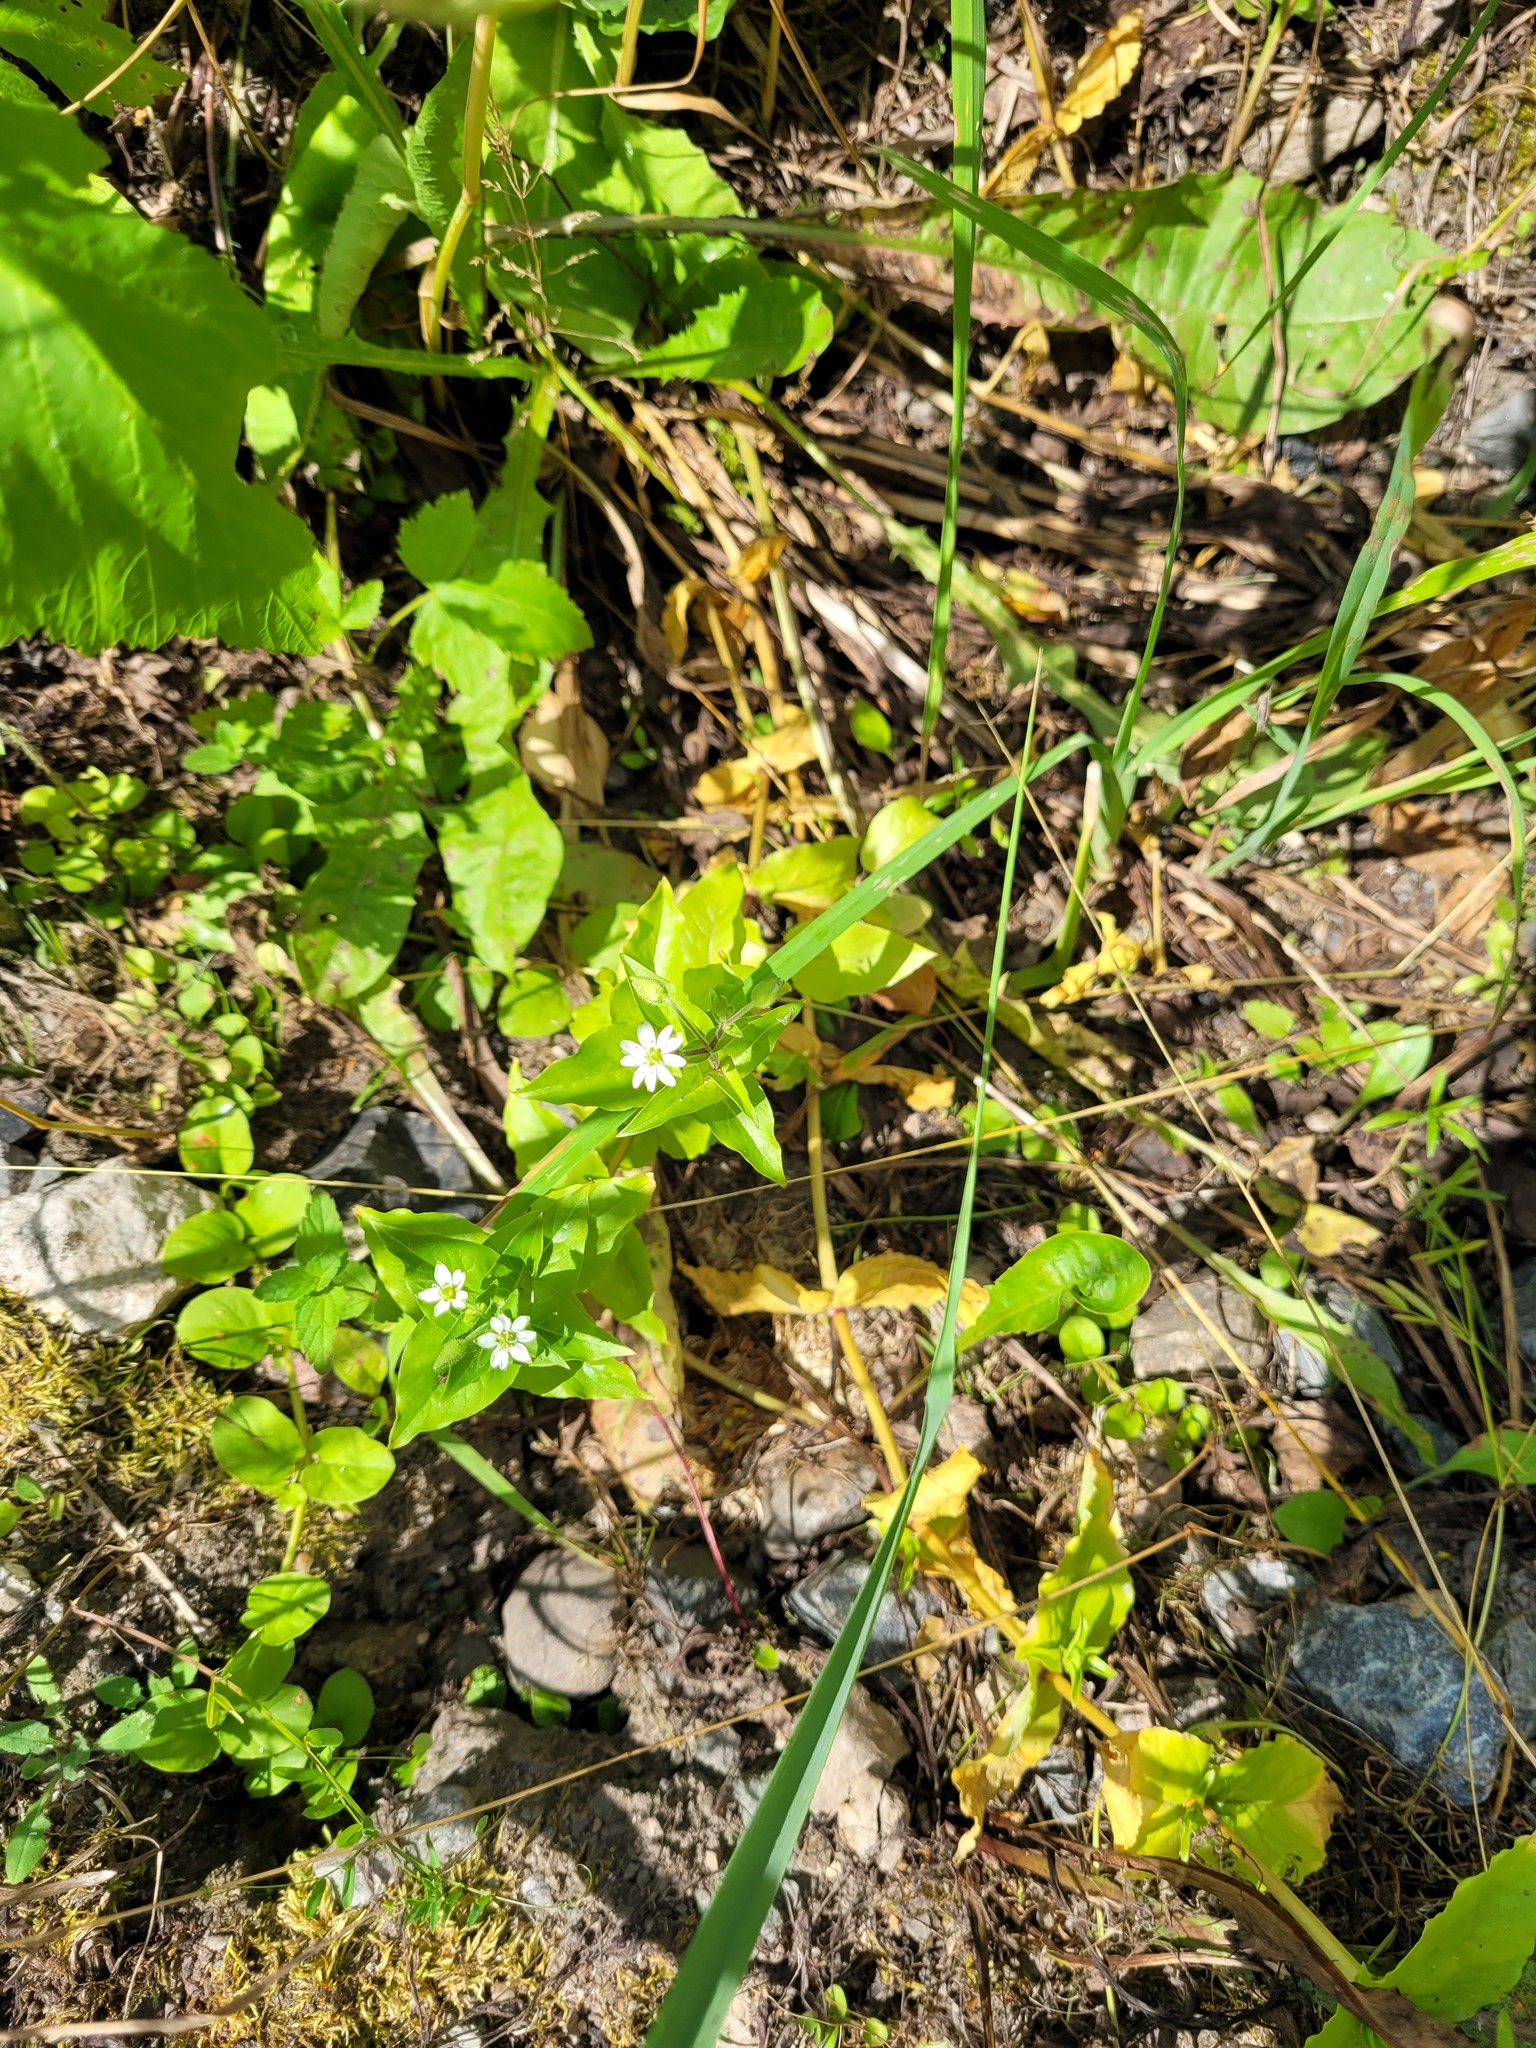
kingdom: Plantae
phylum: Tracheophyta
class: Magnoliopsida
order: Caryophyllales
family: Caryophyllaceae
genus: Stellaria
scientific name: Stellaria aquatica
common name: Water chickweed
